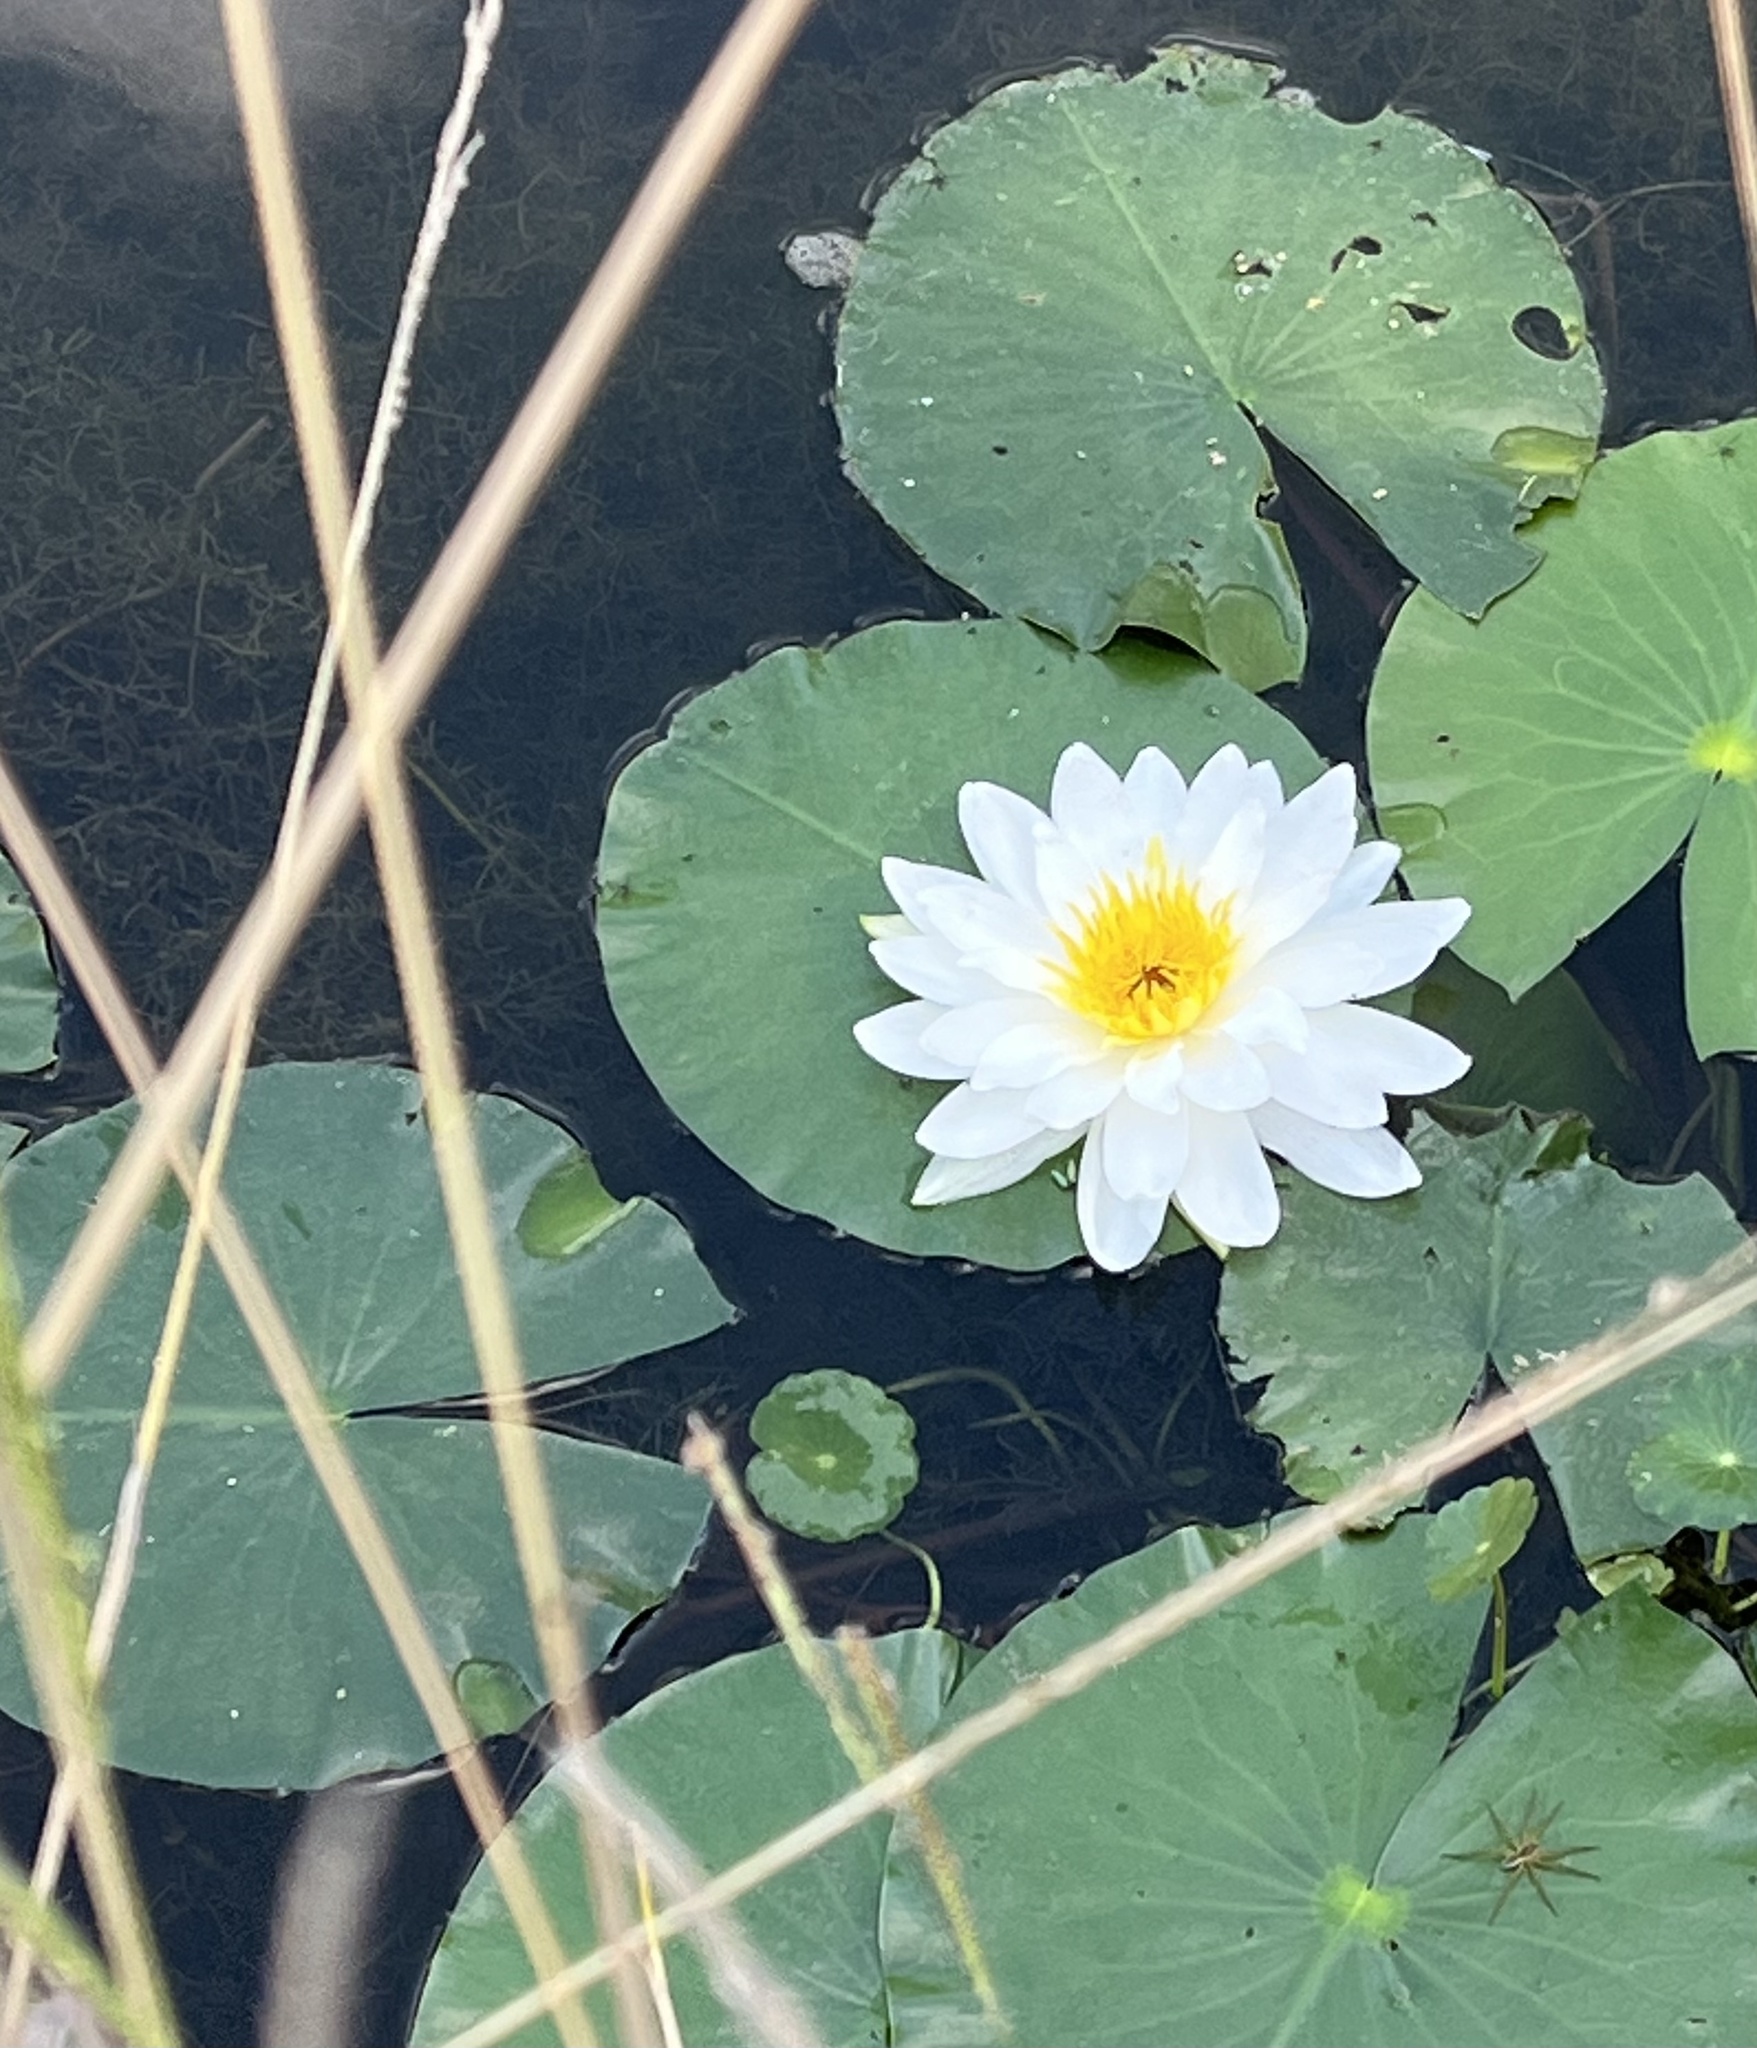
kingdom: Plantae
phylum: Tracheophyta
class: Magnoliopsida
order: Nymphaeales
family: Nymphaeaceae
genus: Nymphaea
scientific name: Nymphaea odorata
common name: Fragrant water-lily
